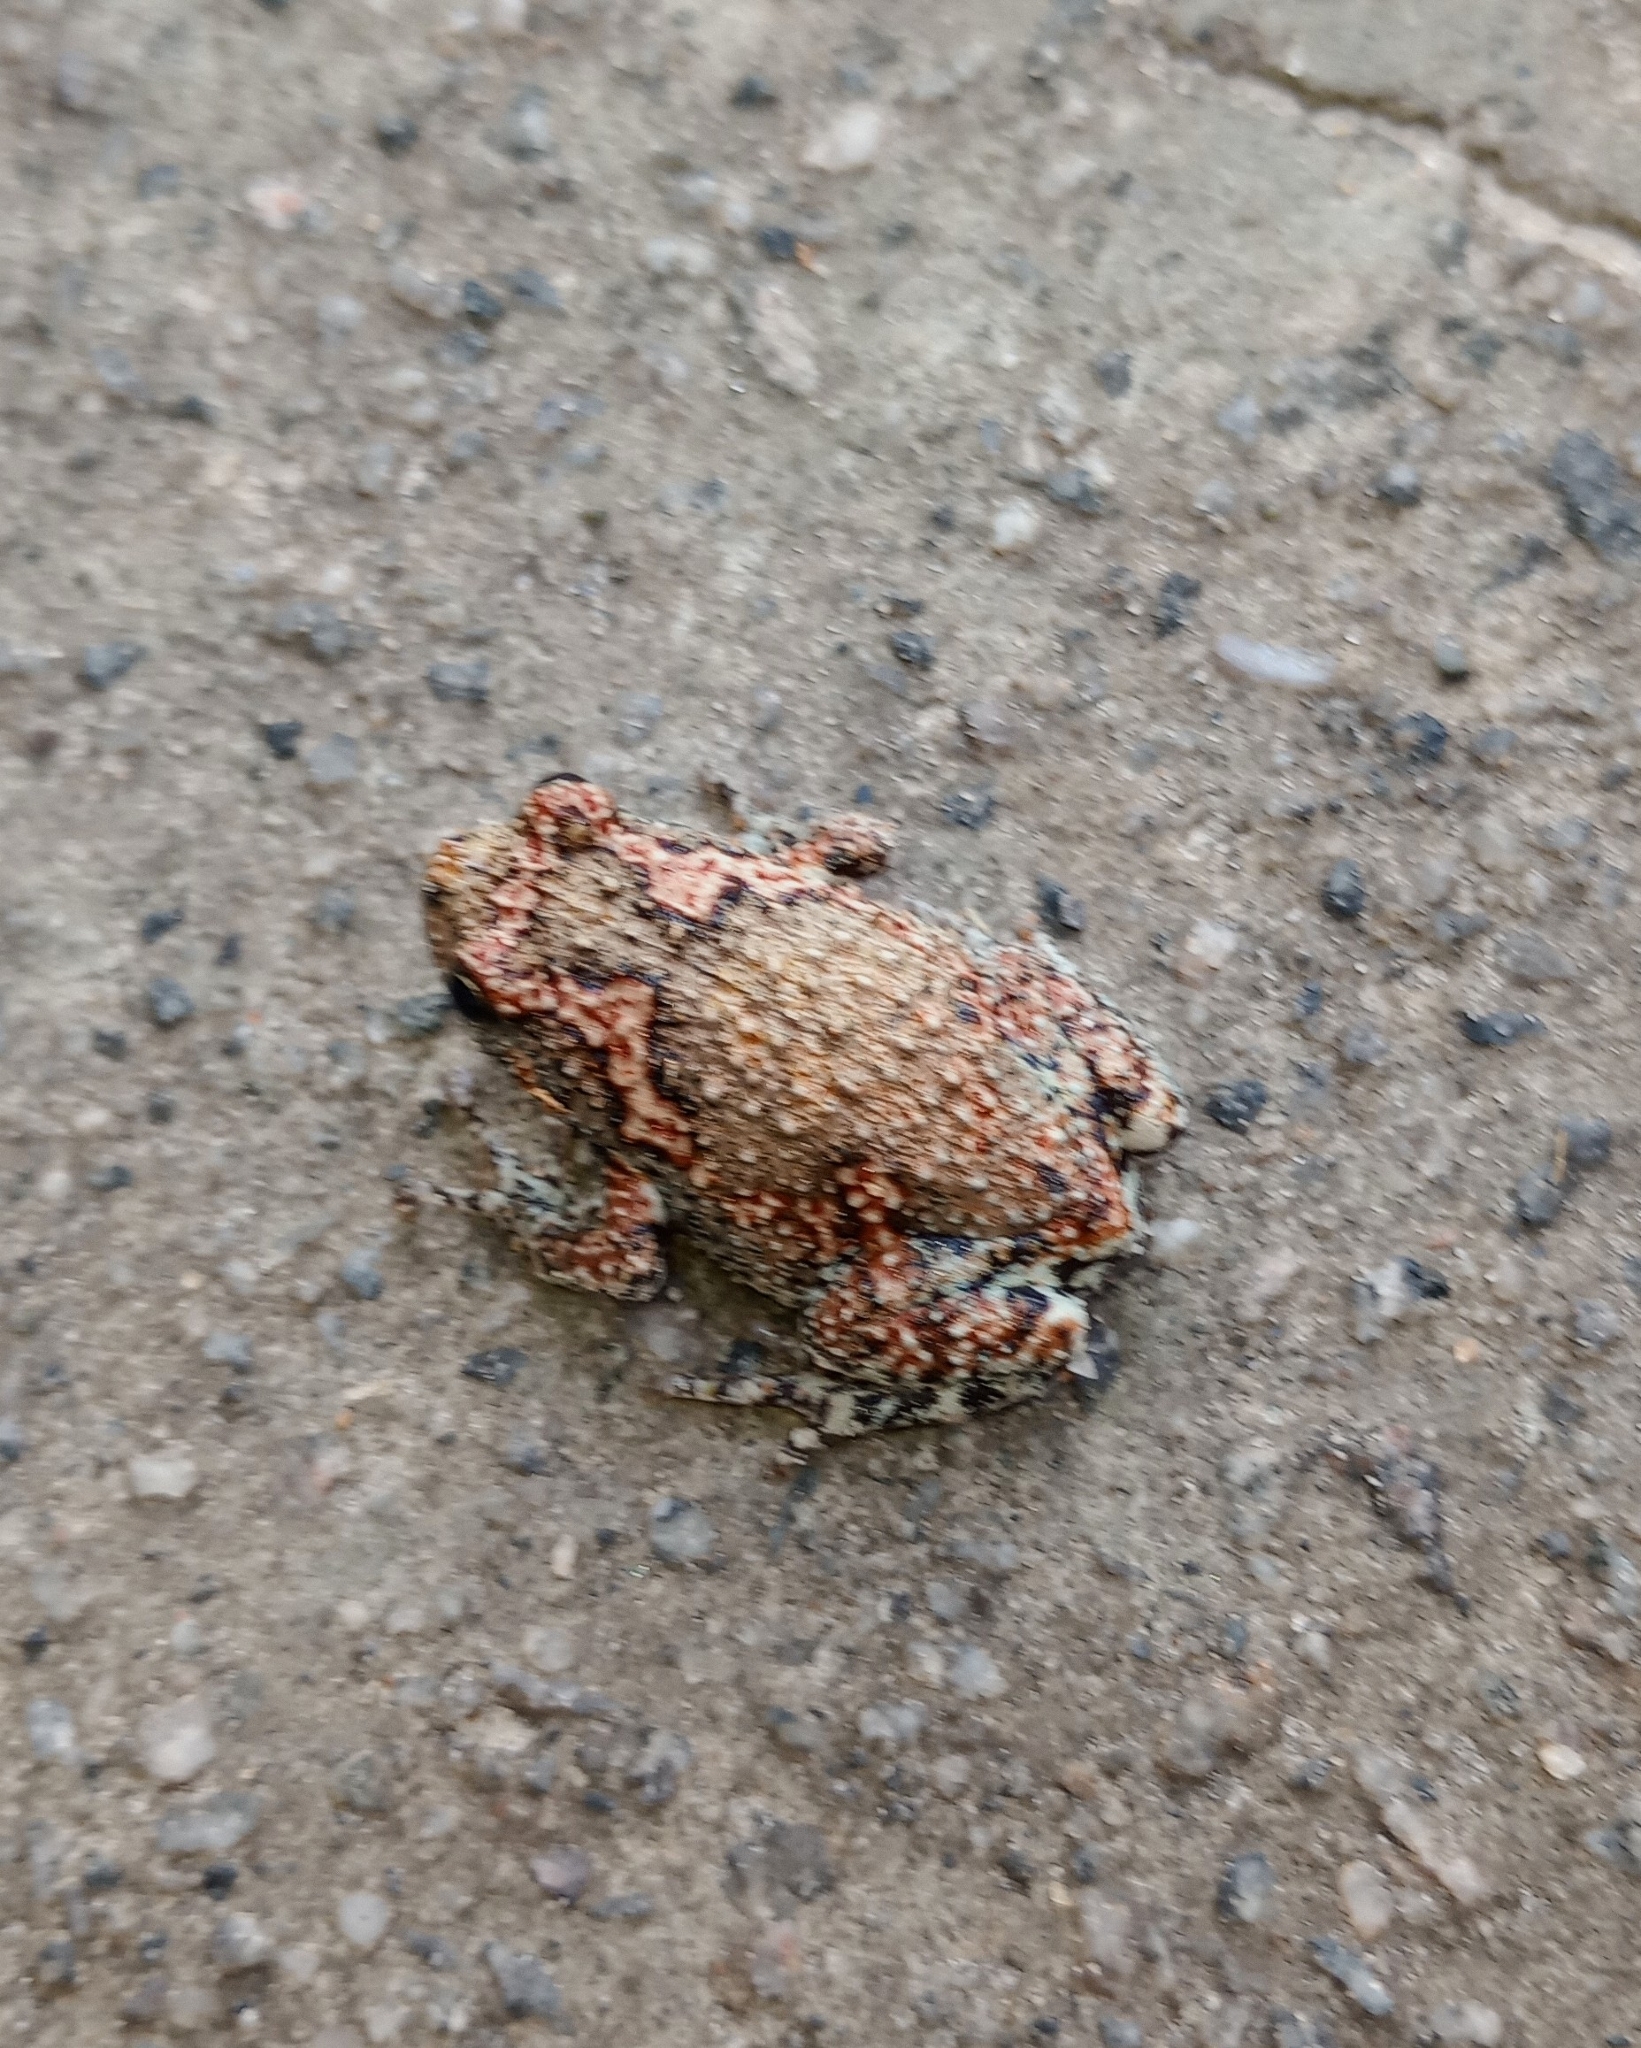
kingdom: Animalia
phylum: Chordata
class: Amphibia
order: Anura
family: Microhylidae
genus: Uperodon
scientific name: Uperodon taprobanicus
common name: Ceylon kaloula
